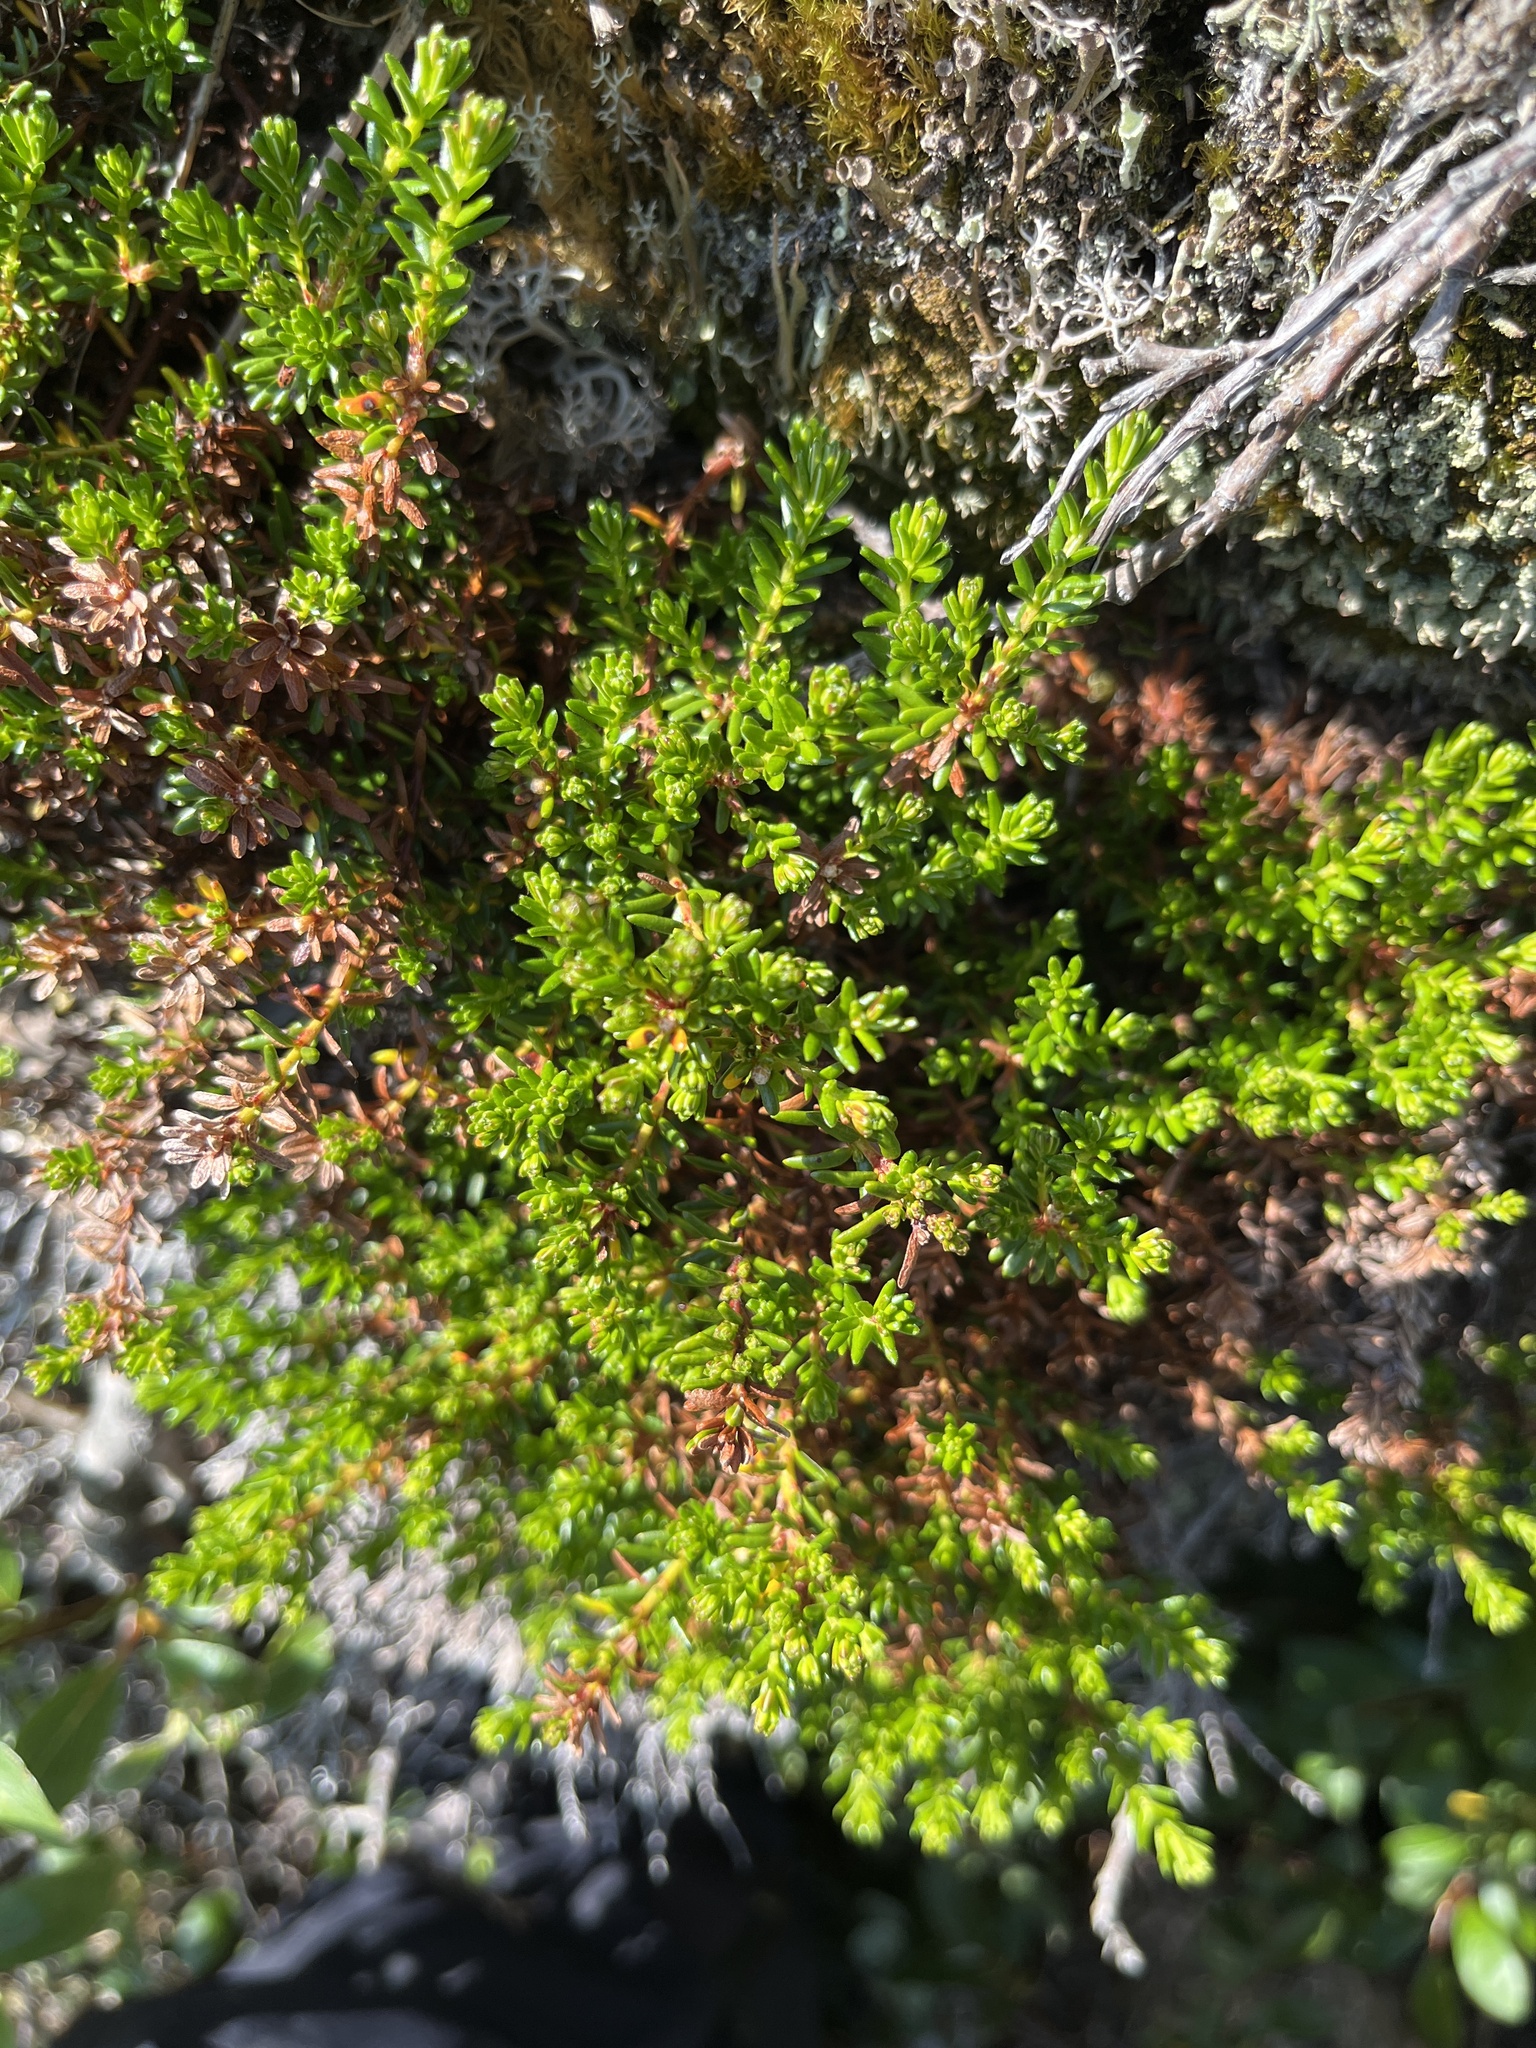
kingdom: Plantae
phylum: Tracheophyta
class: Magnoliopsida
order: Ericales
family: Ericaceae
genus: Empetrum
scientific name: Empetrum hermaphroditum
